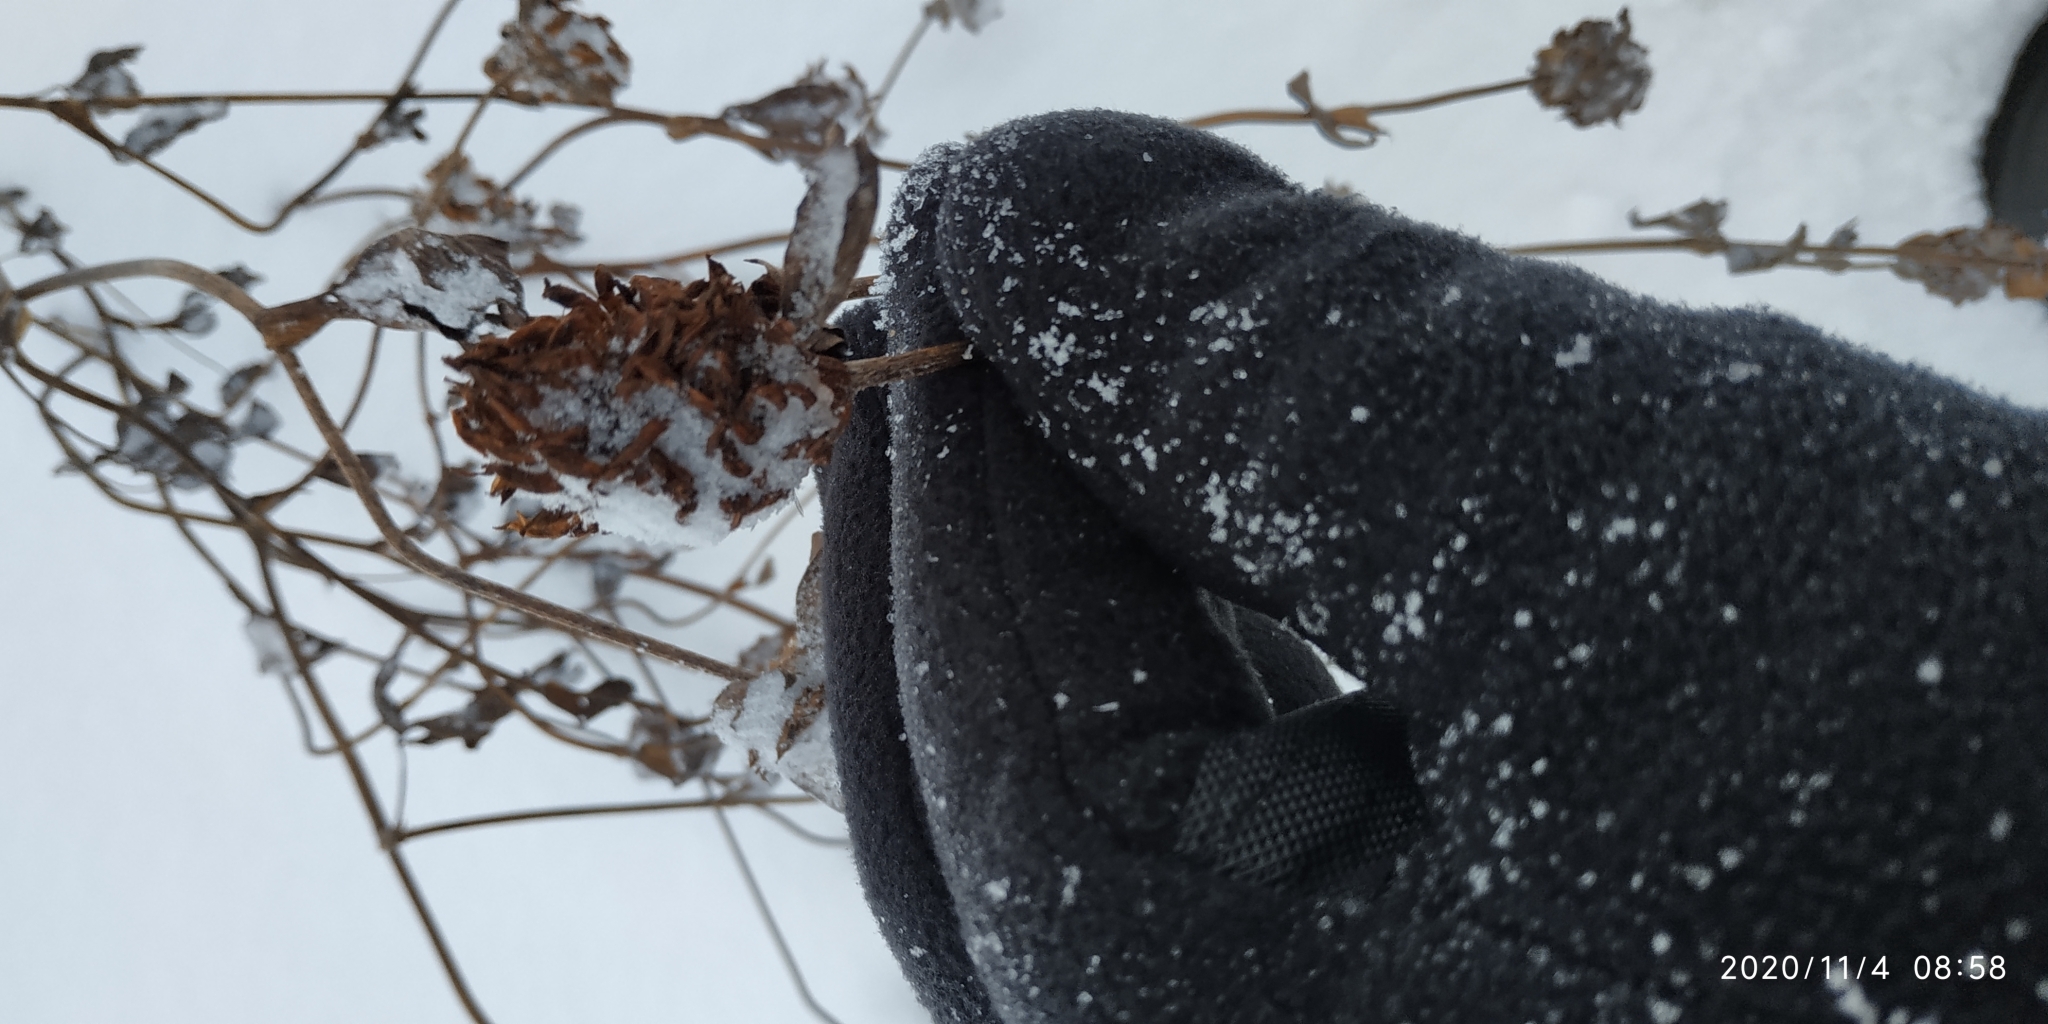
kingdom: Plantae
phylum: Tracheophyta
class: Magnoliopsida
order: Fabales
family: Fabaceae
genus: Trifolium
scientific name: Trifolium pratense
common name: Red clover
